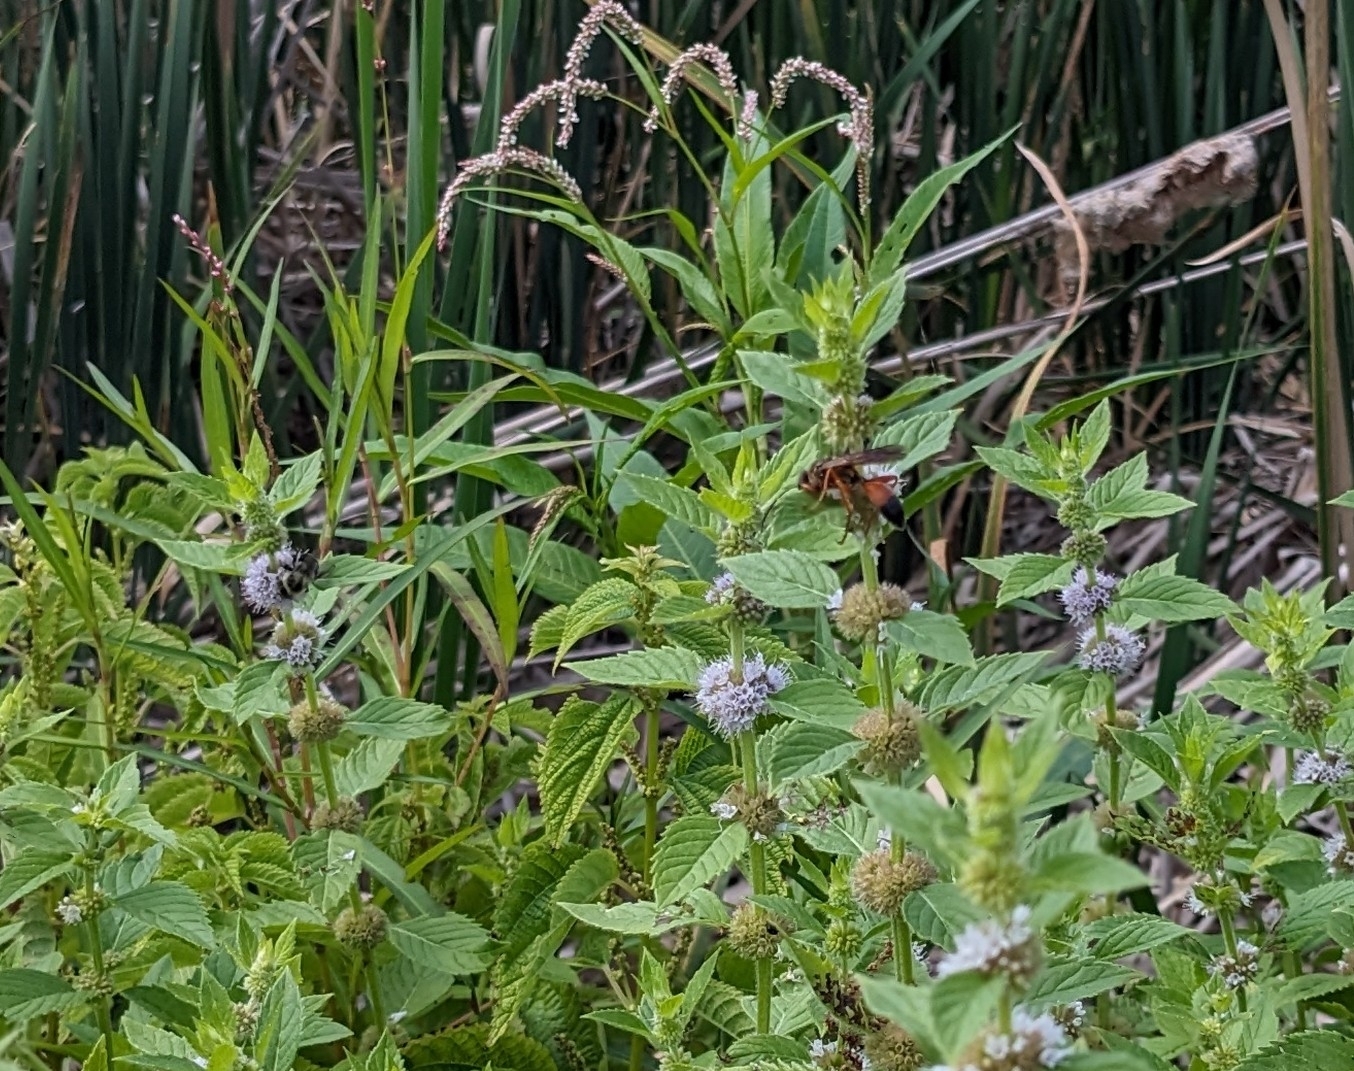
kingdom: Animalia
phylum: Arthropoda
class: Insecta
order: Hymenoptera
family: Sphecidae
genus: Sphex
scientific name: Sphex ichneumoneus
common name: Great golden digger wasp
